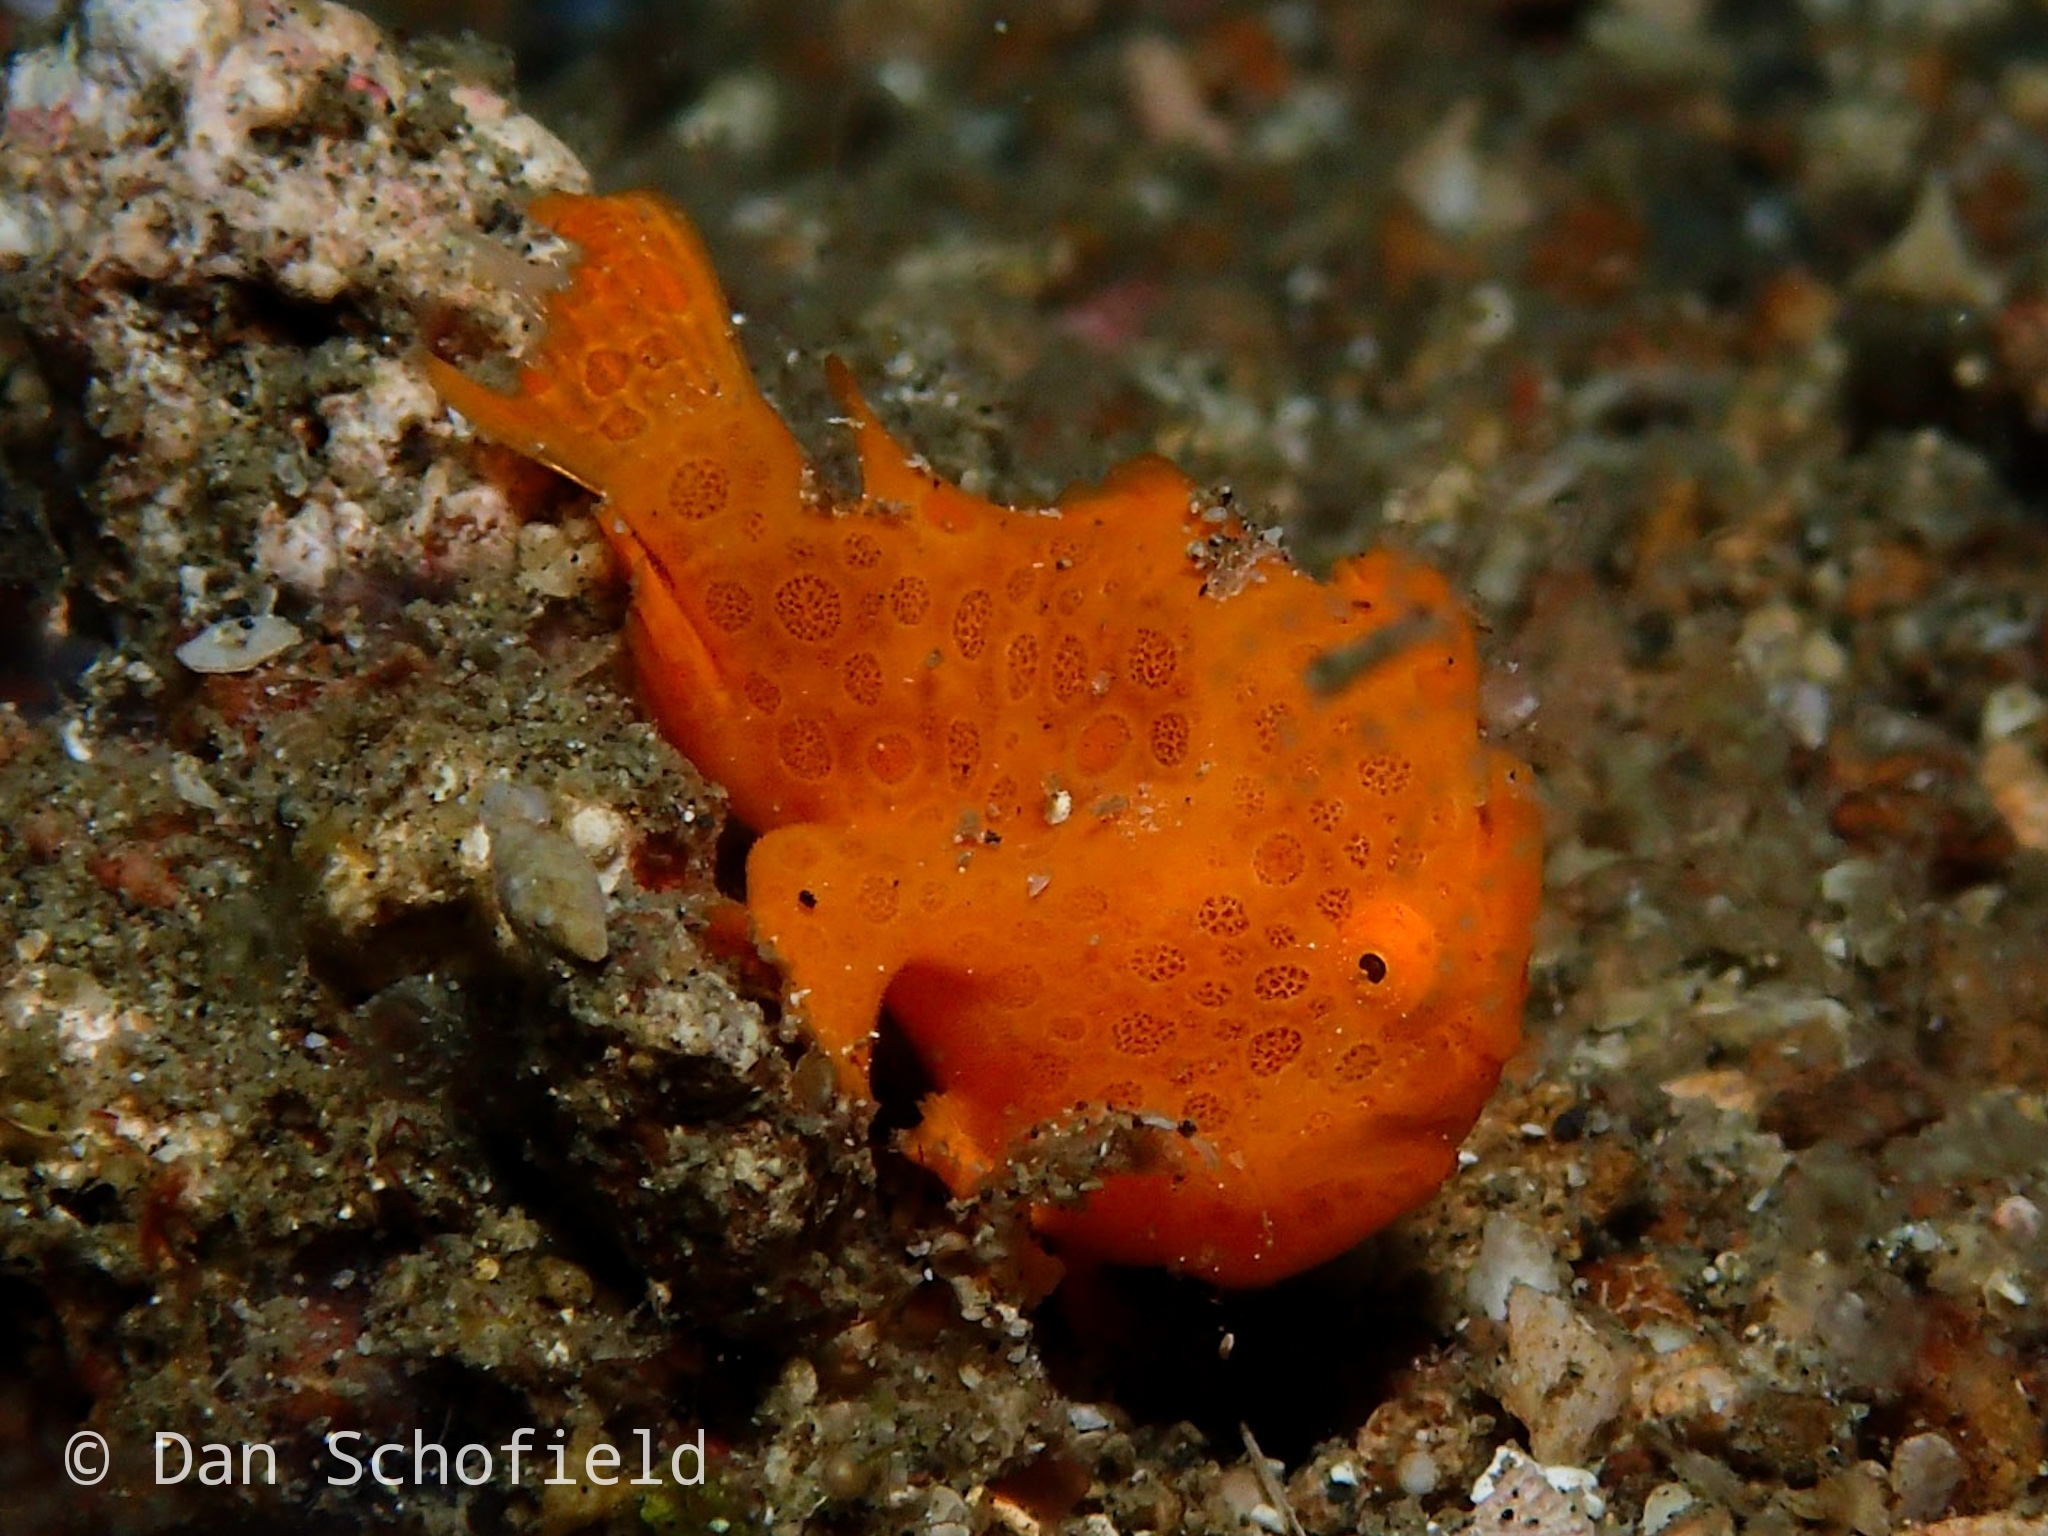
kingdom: Animalia
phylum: Chordata
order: Lophiiformes
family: Antennariidae
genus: Antennarius
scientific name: Antennarius pictus
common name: Painted frogfish
